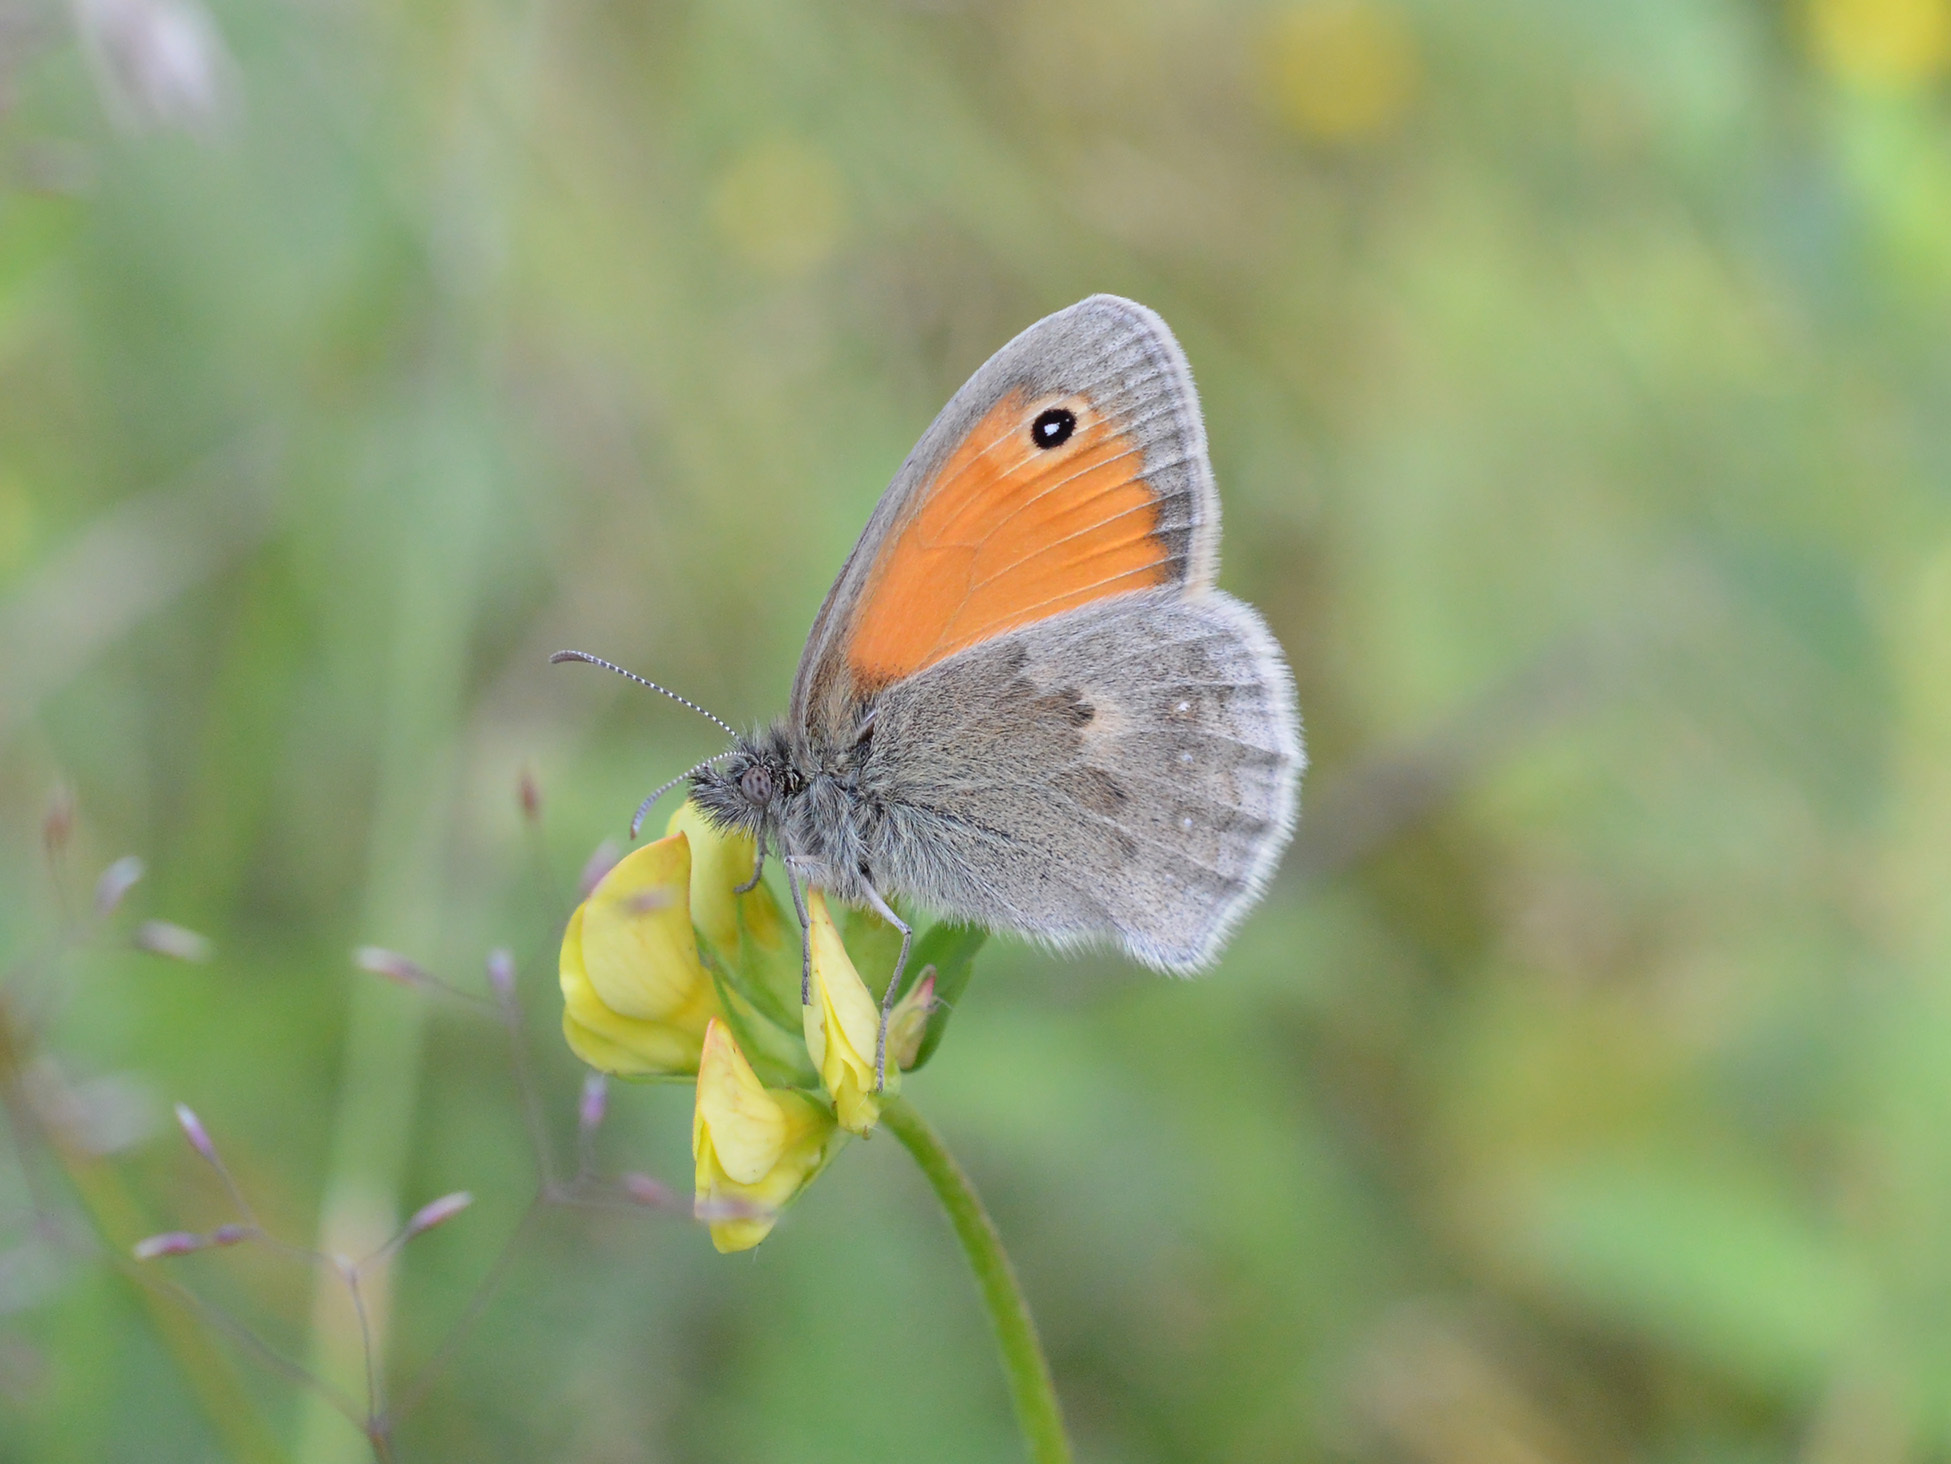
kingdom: Animalia
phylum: Arthropoda
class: Insecta
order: Lepidoptera
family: Nymphalidae
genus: Coenonympha
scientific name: Coenonympha pamphilus
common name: Small heath
